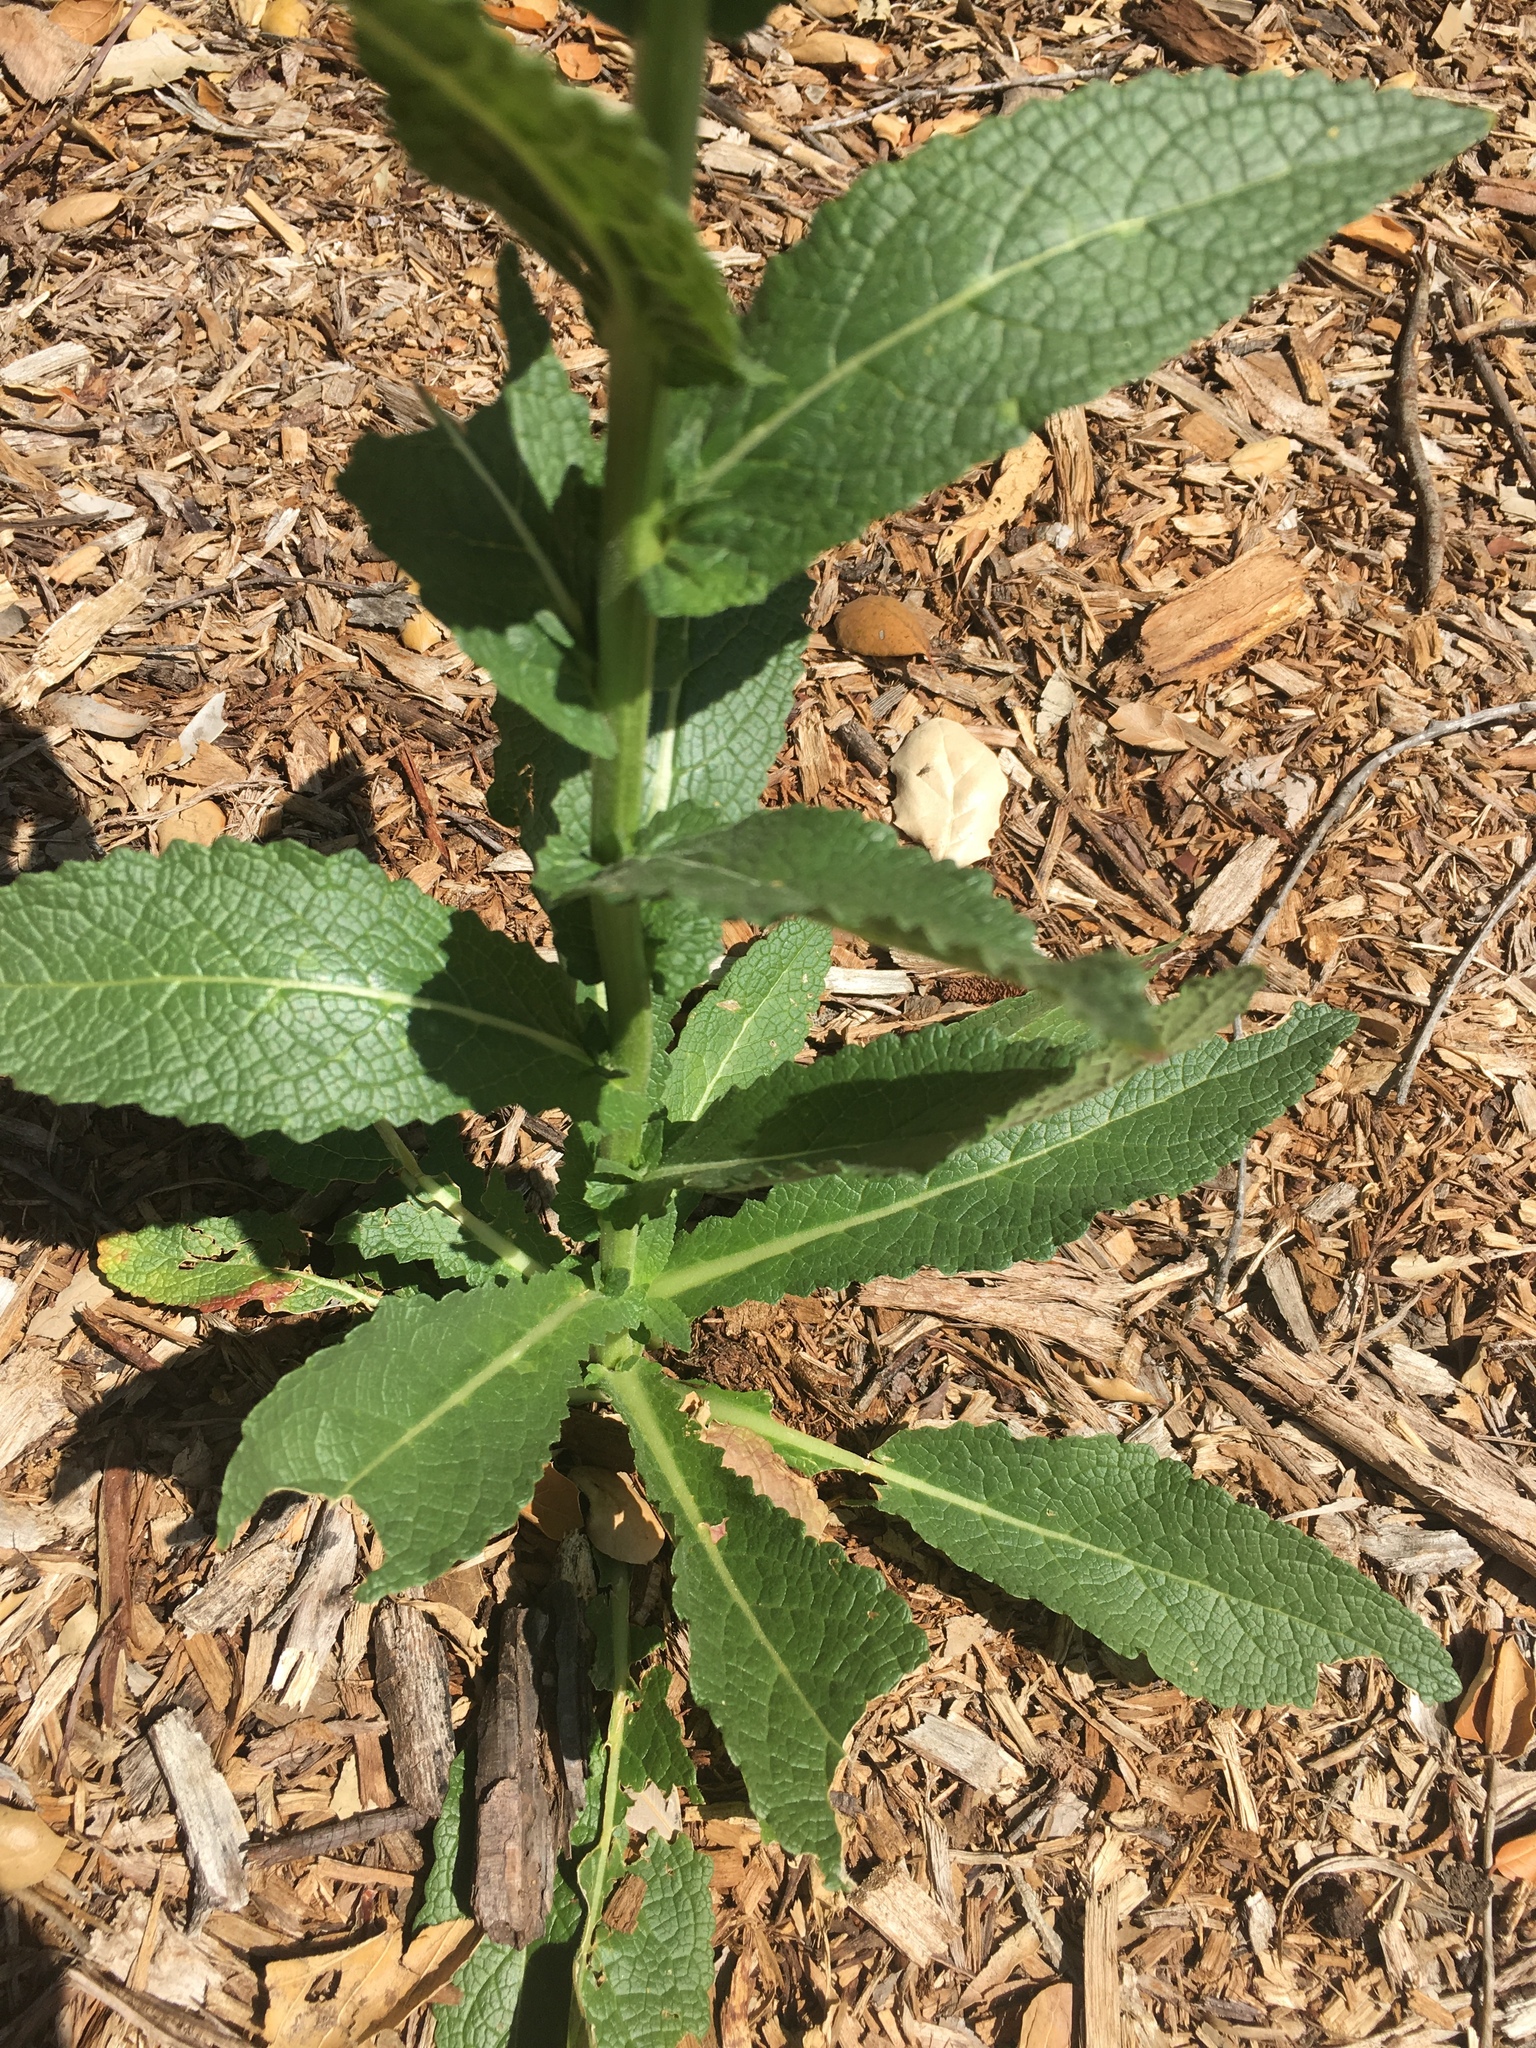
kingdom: Plantae
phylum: Tracheophyta
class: Magnoliopsida
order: Lamiales
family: Scrophulariaceae
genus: Verbascum
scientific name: Verbascum virgatum
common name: Twiggy mullein
